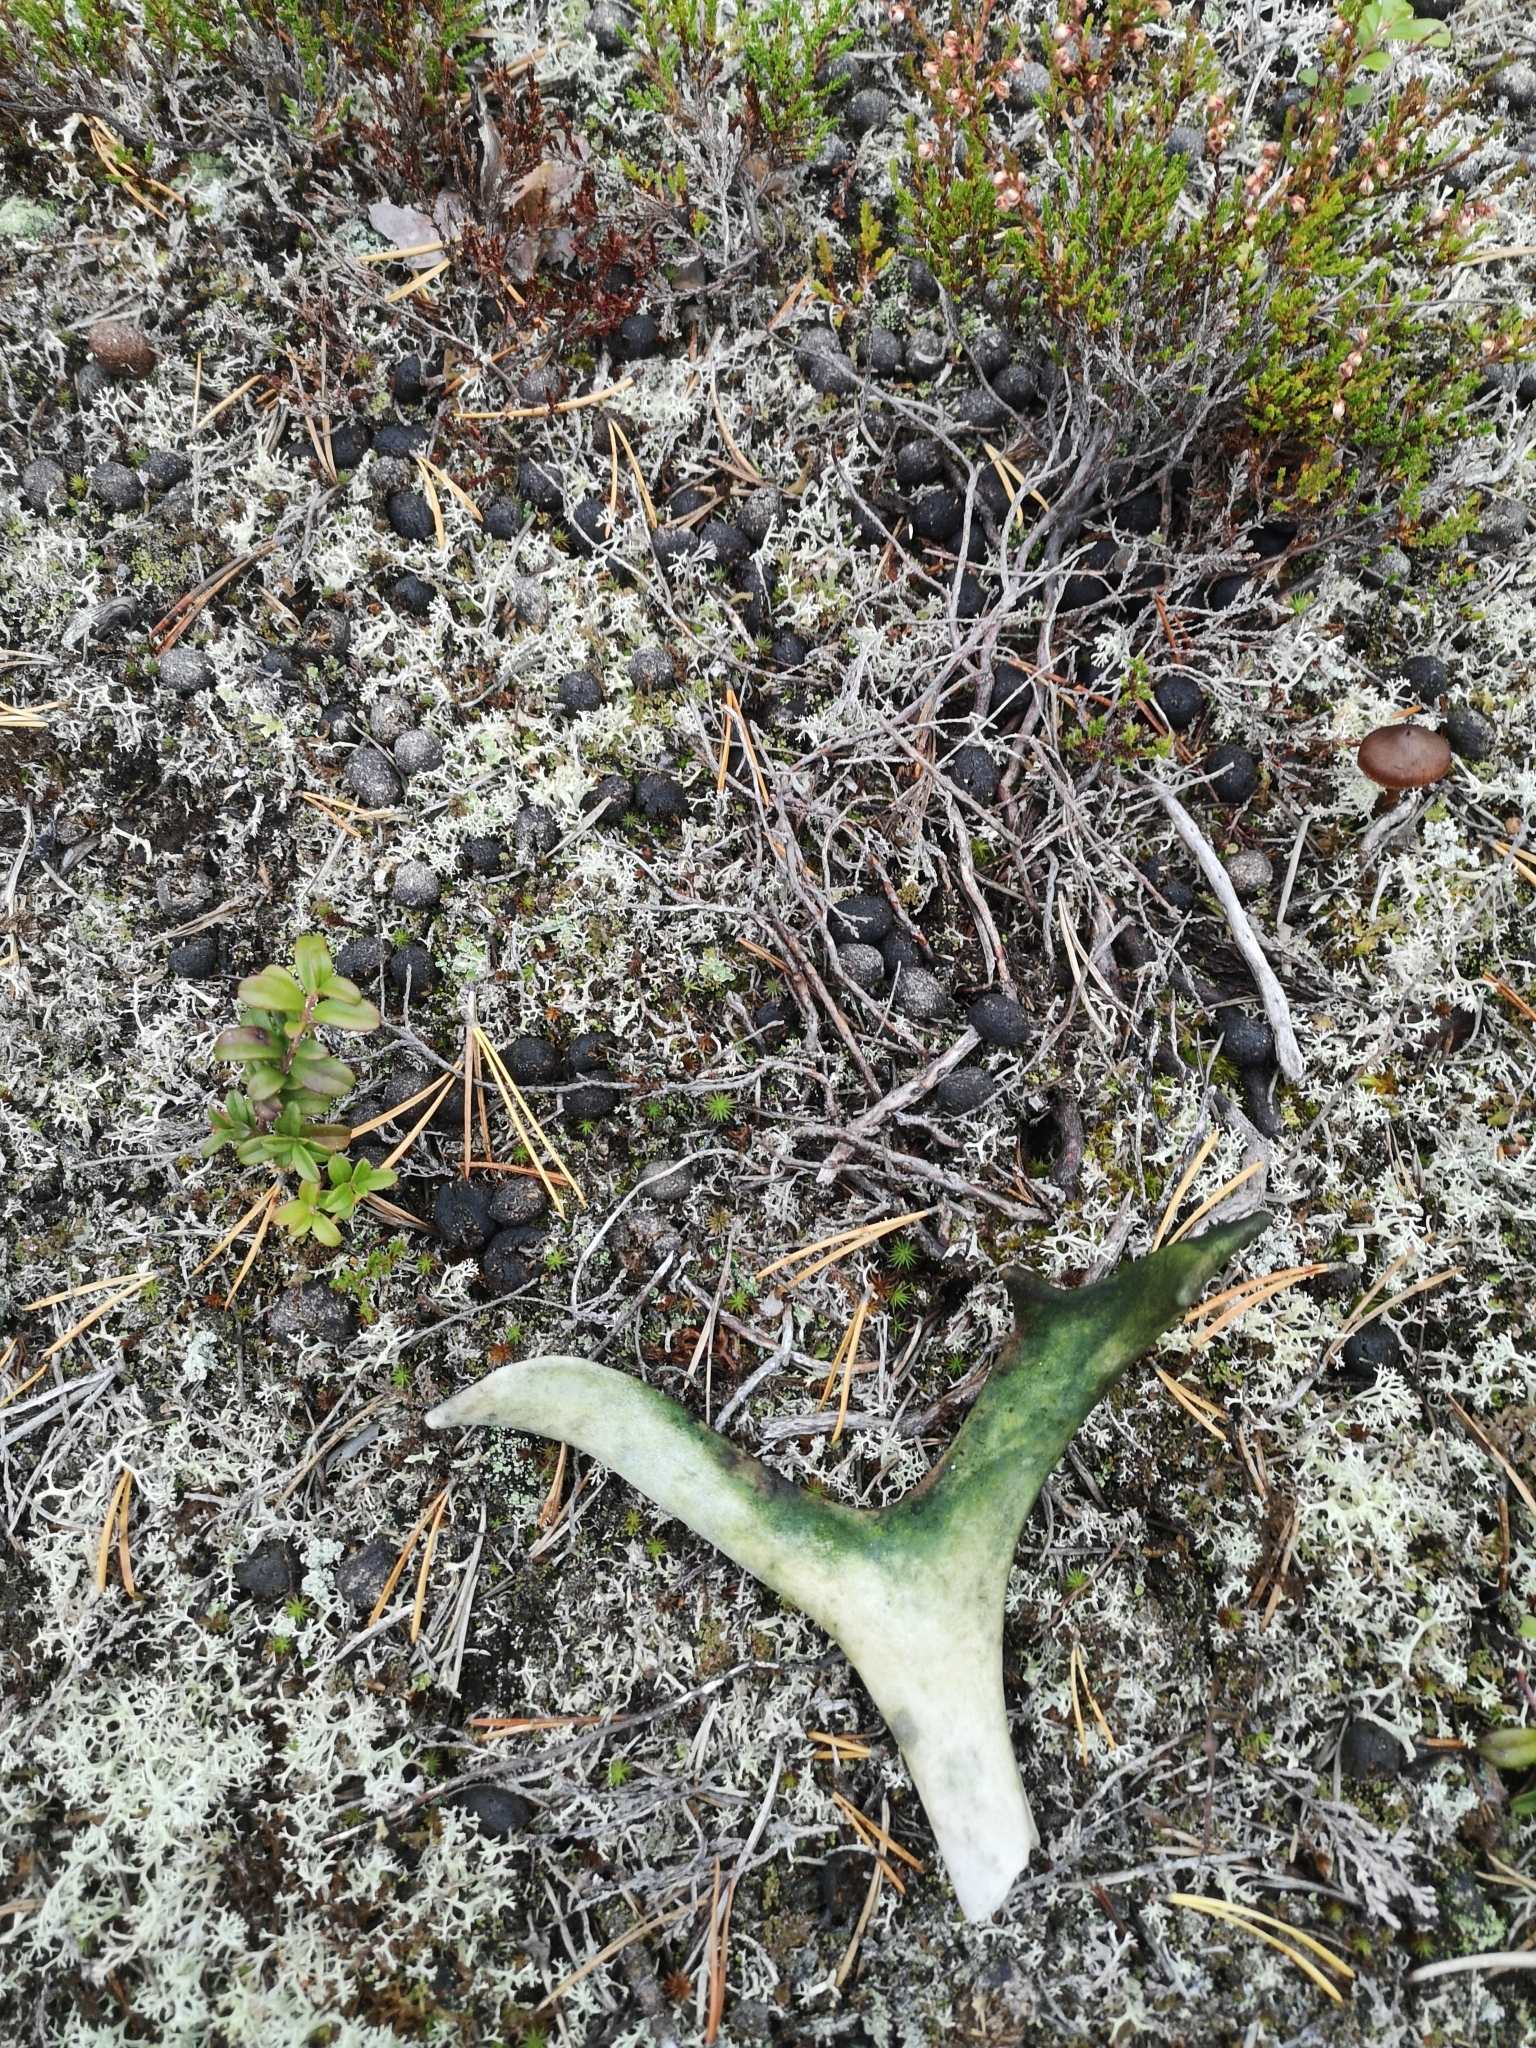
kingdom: Animalia
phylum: Chordata
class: Mammalia
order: Artiodactyla
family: Cervidae
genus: Rangifer
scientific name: Rangifer tarandus
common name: Reindeer
